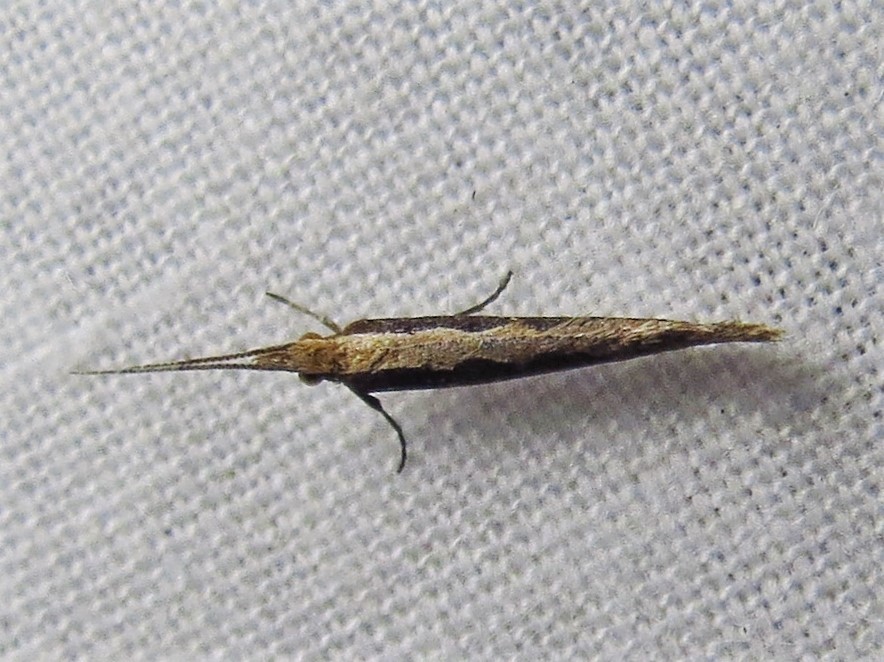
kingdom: Animalia
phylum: Arthropoda
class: Insecta
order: Lepidoptera
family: Plutellidae
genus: Plutella
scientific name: Plutella xylostella
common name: Diamond-back moth
